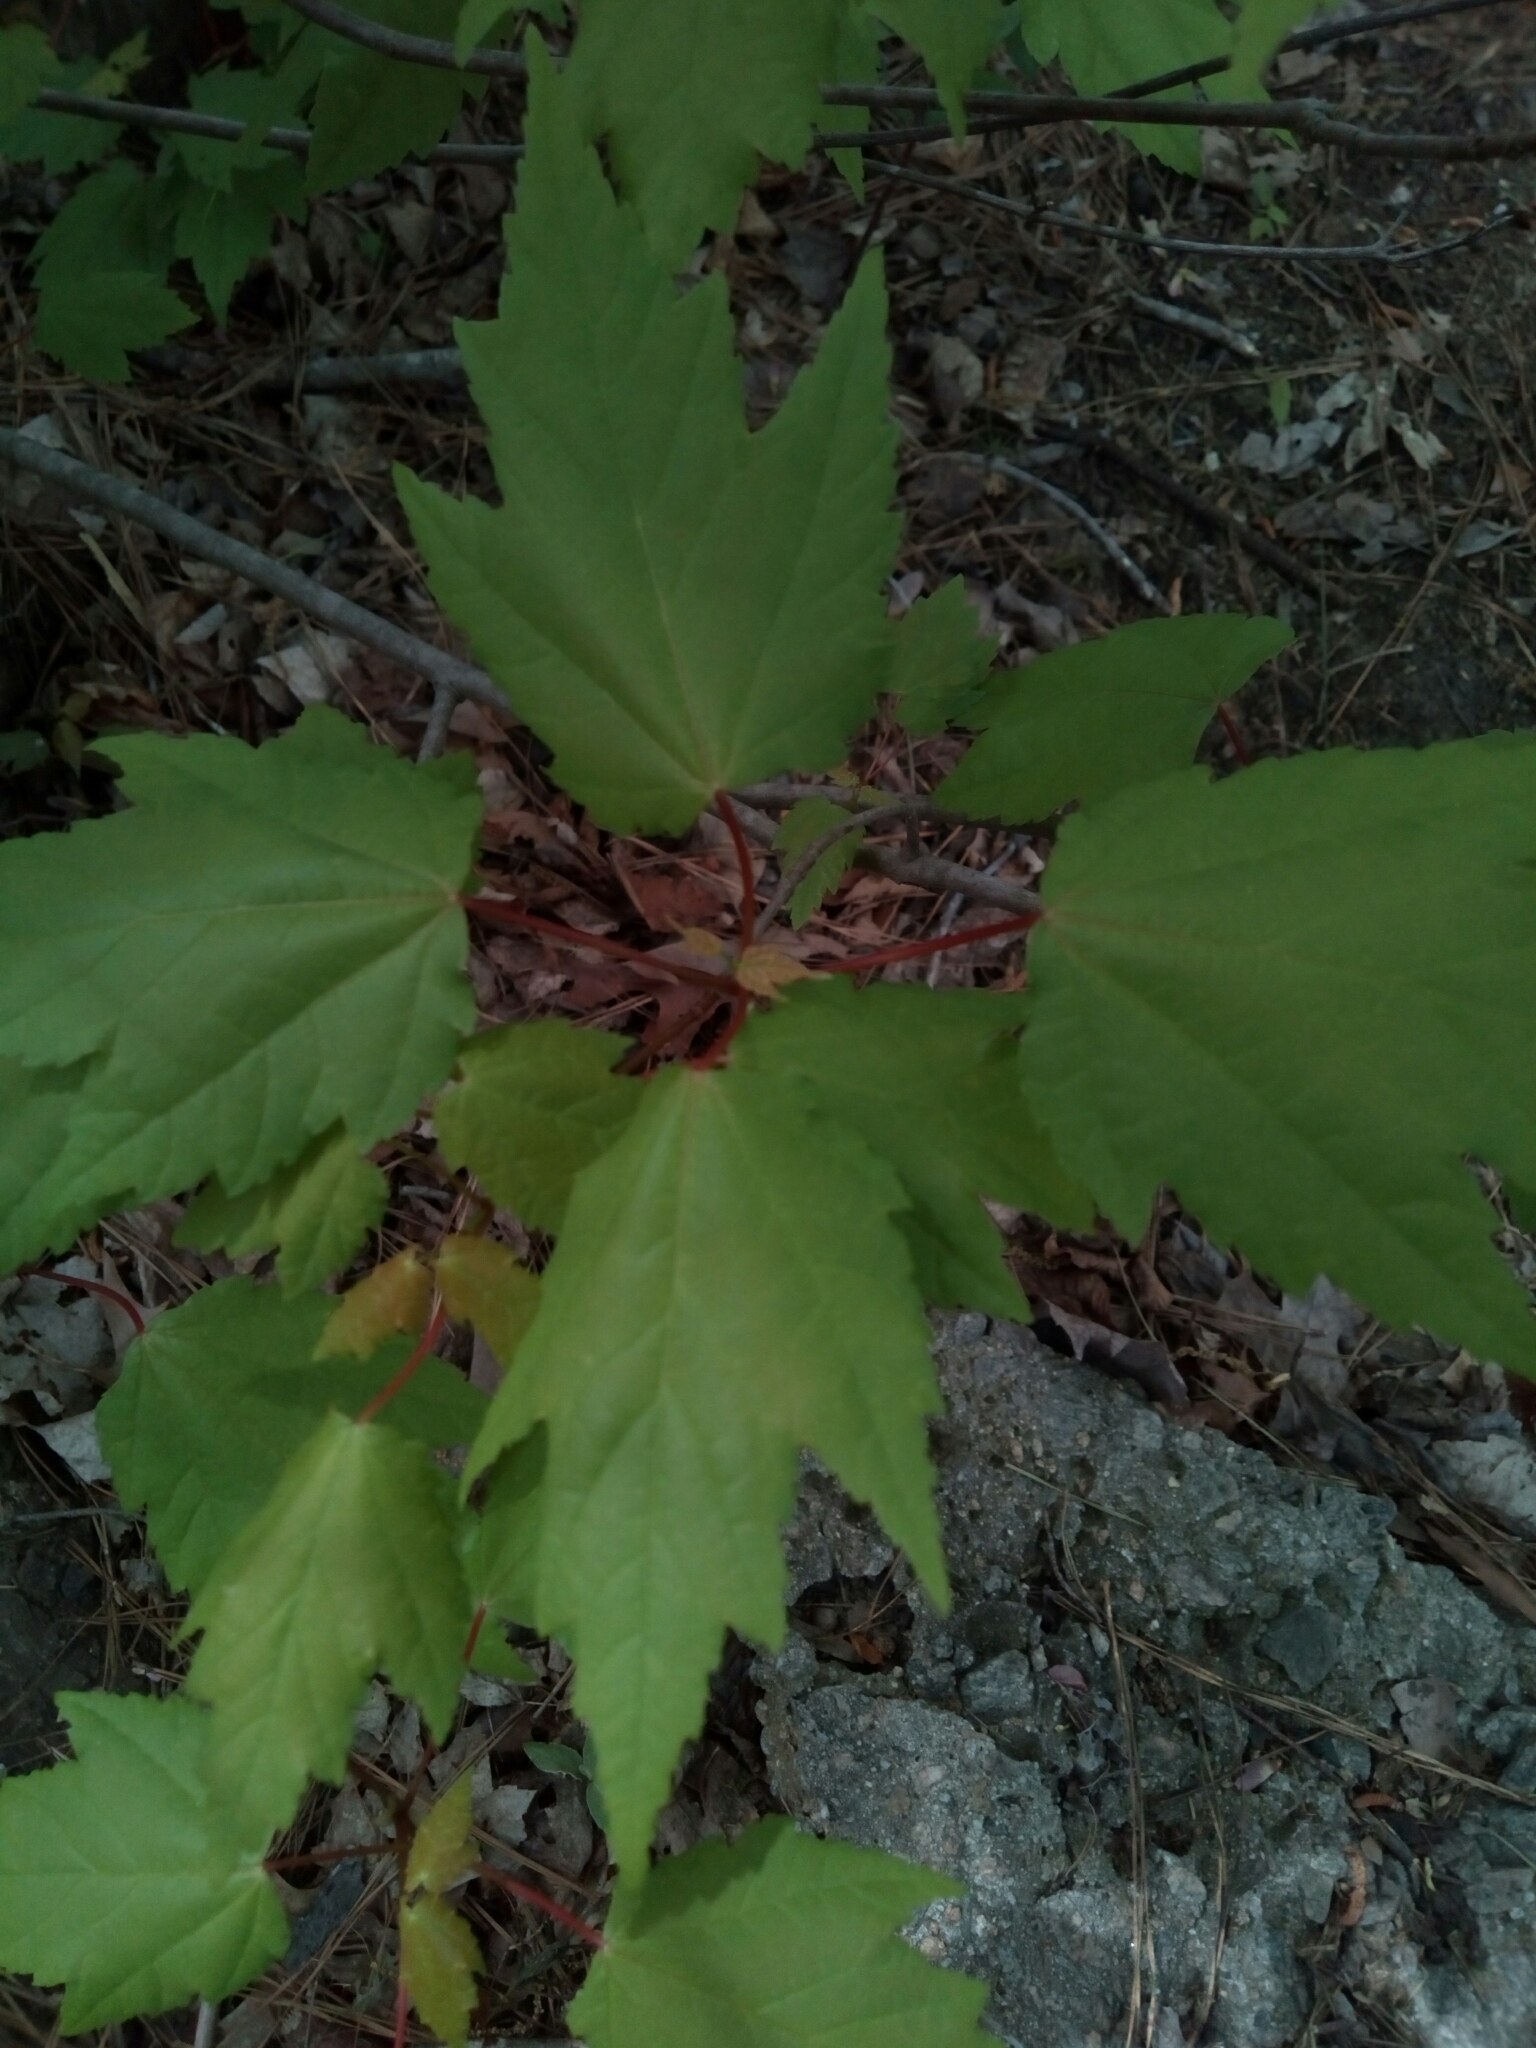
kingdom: Plantae
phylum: Tracheophyta
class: Magnoliopsida
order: Sapindales
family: Sapindaceae
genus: Acer
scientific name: Acer rubrum
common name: Red maple
